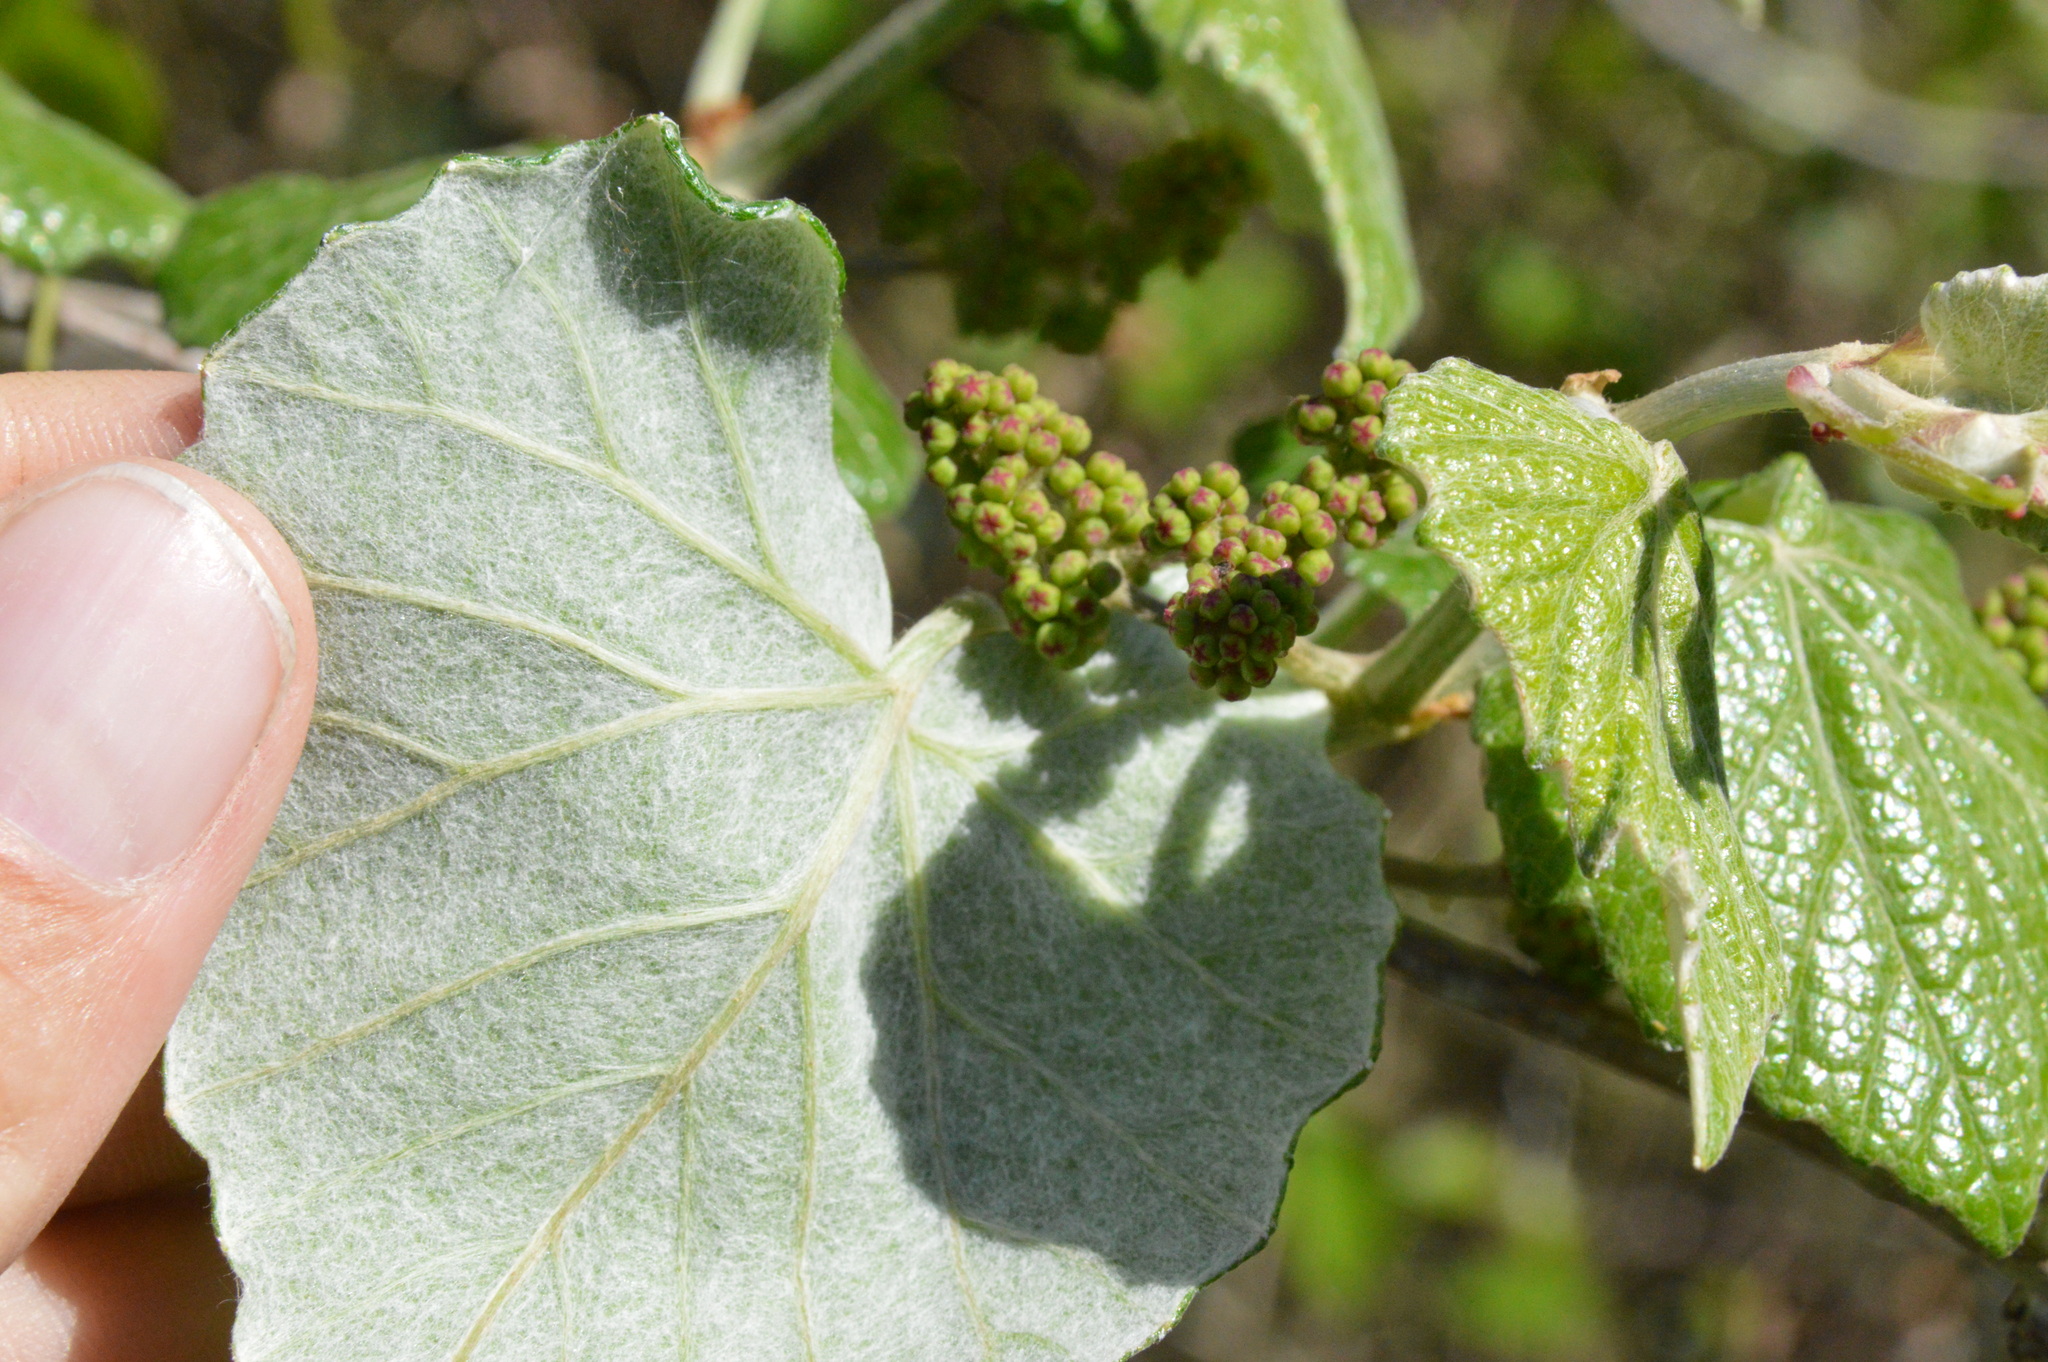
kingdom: Plantae
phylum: Tracheophyta
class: Magnoliopsida
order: Vitales
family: Vitaceae
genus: Vitis
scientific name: Vitis mustangensis
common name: Mustang grape
